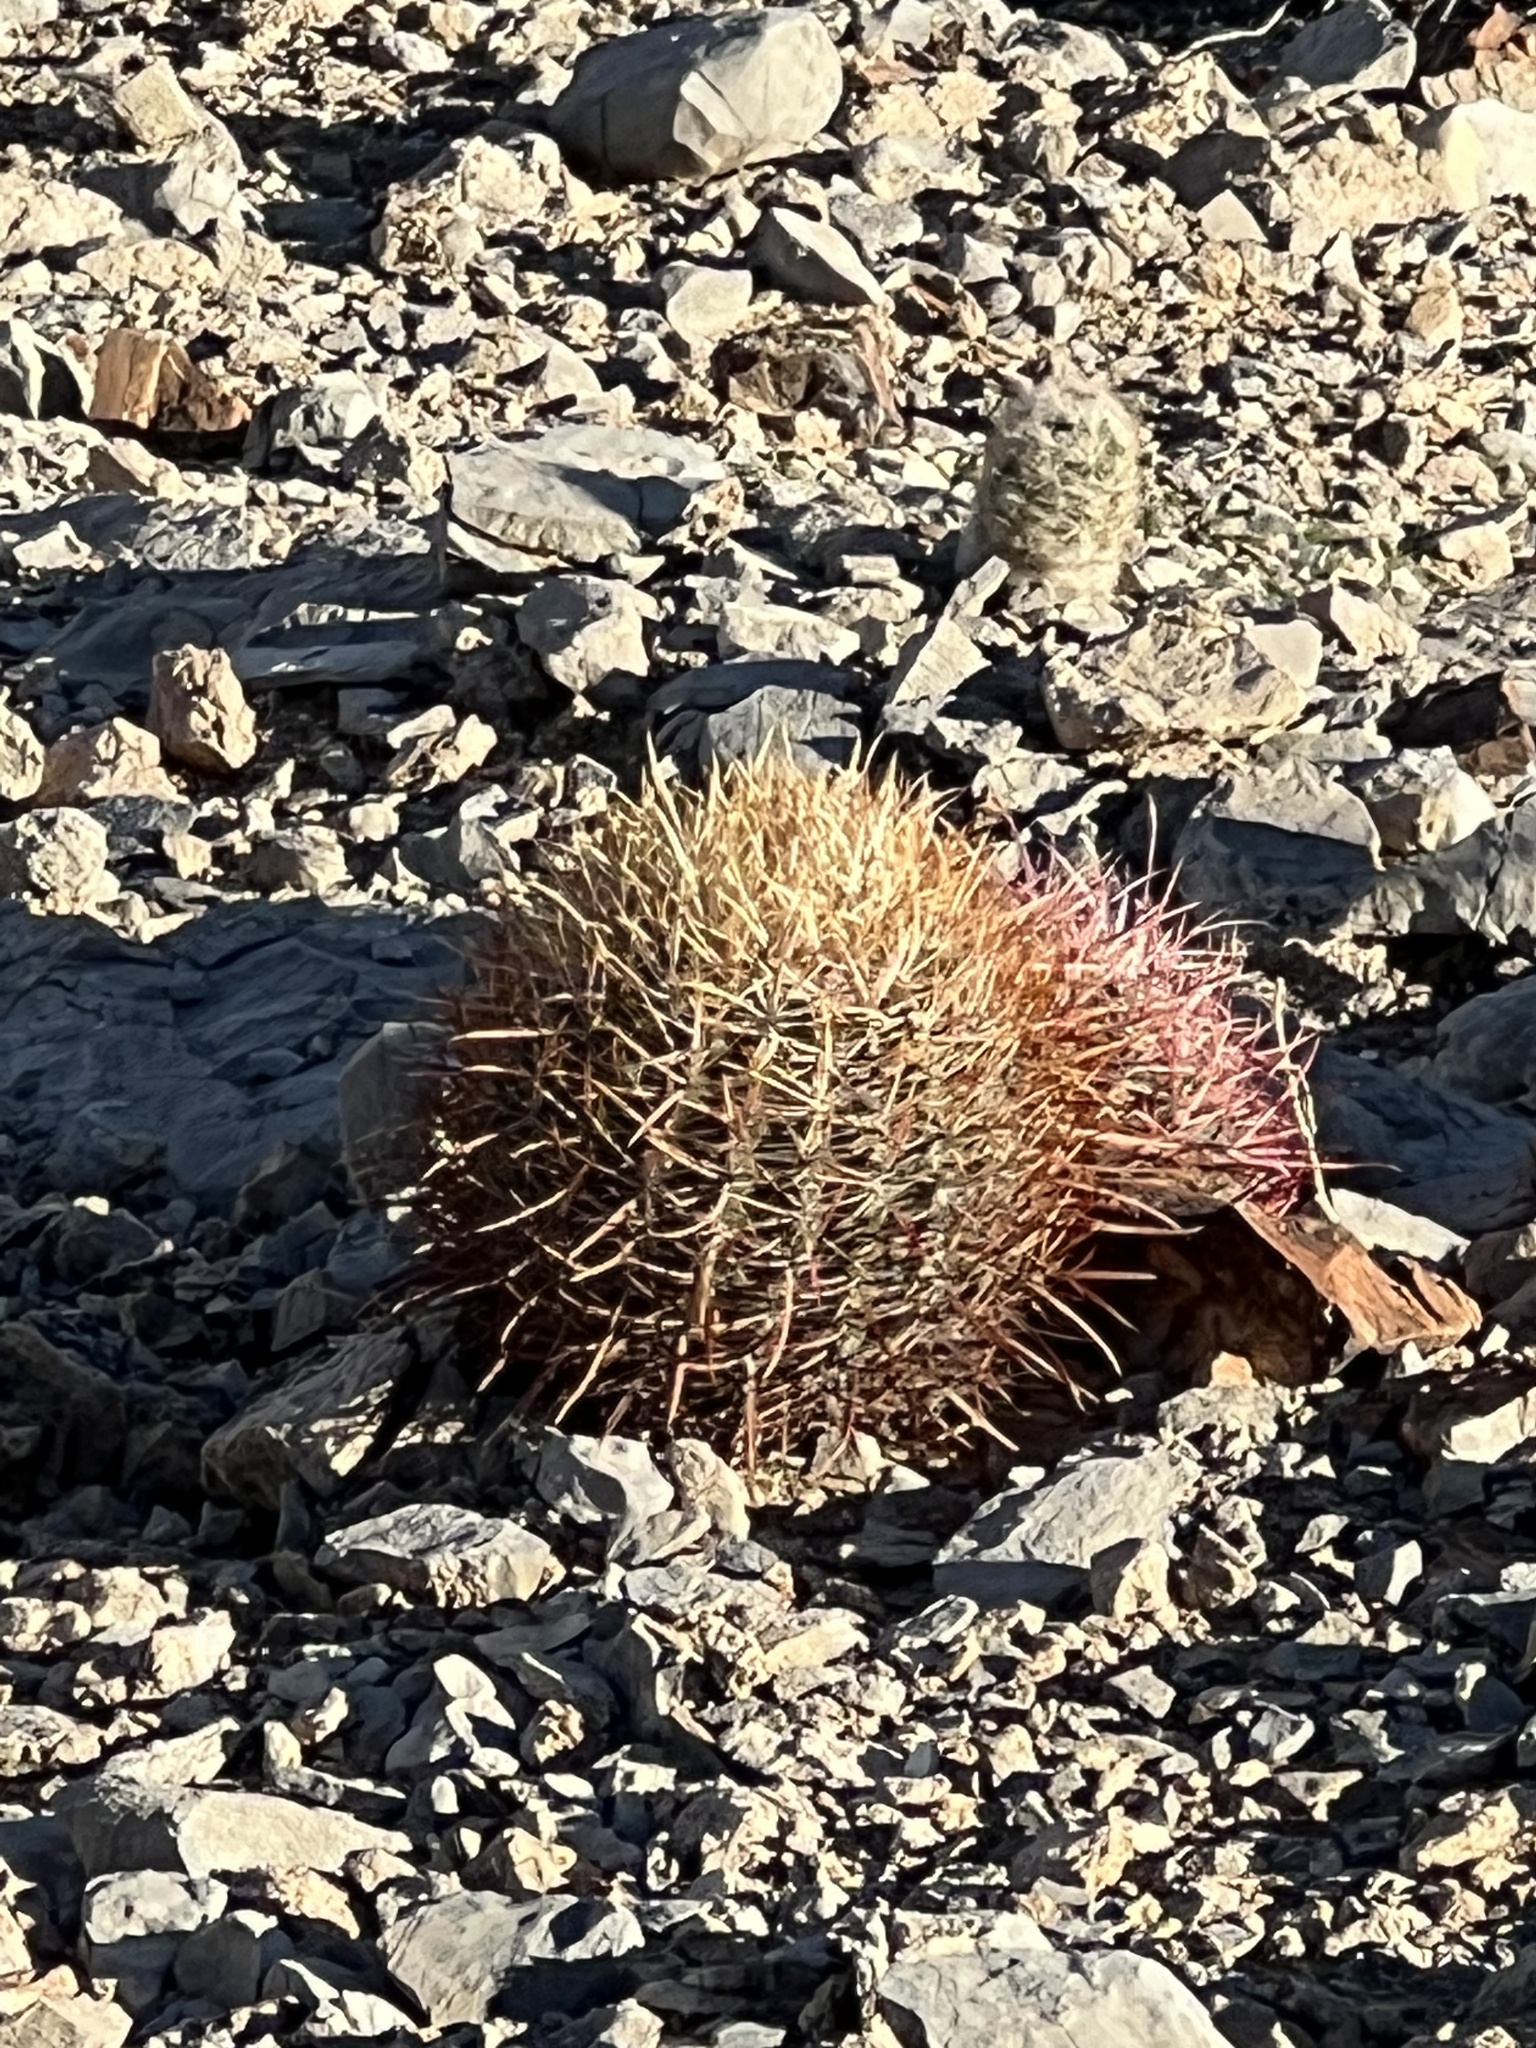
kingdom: Plantae
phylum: Tracheophyta
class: Magnoliopsida
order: Caryophyllales
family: Cactaceae
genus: Ferocactus
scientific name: Ferocactus cylindraceus
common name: California barrel cactus
